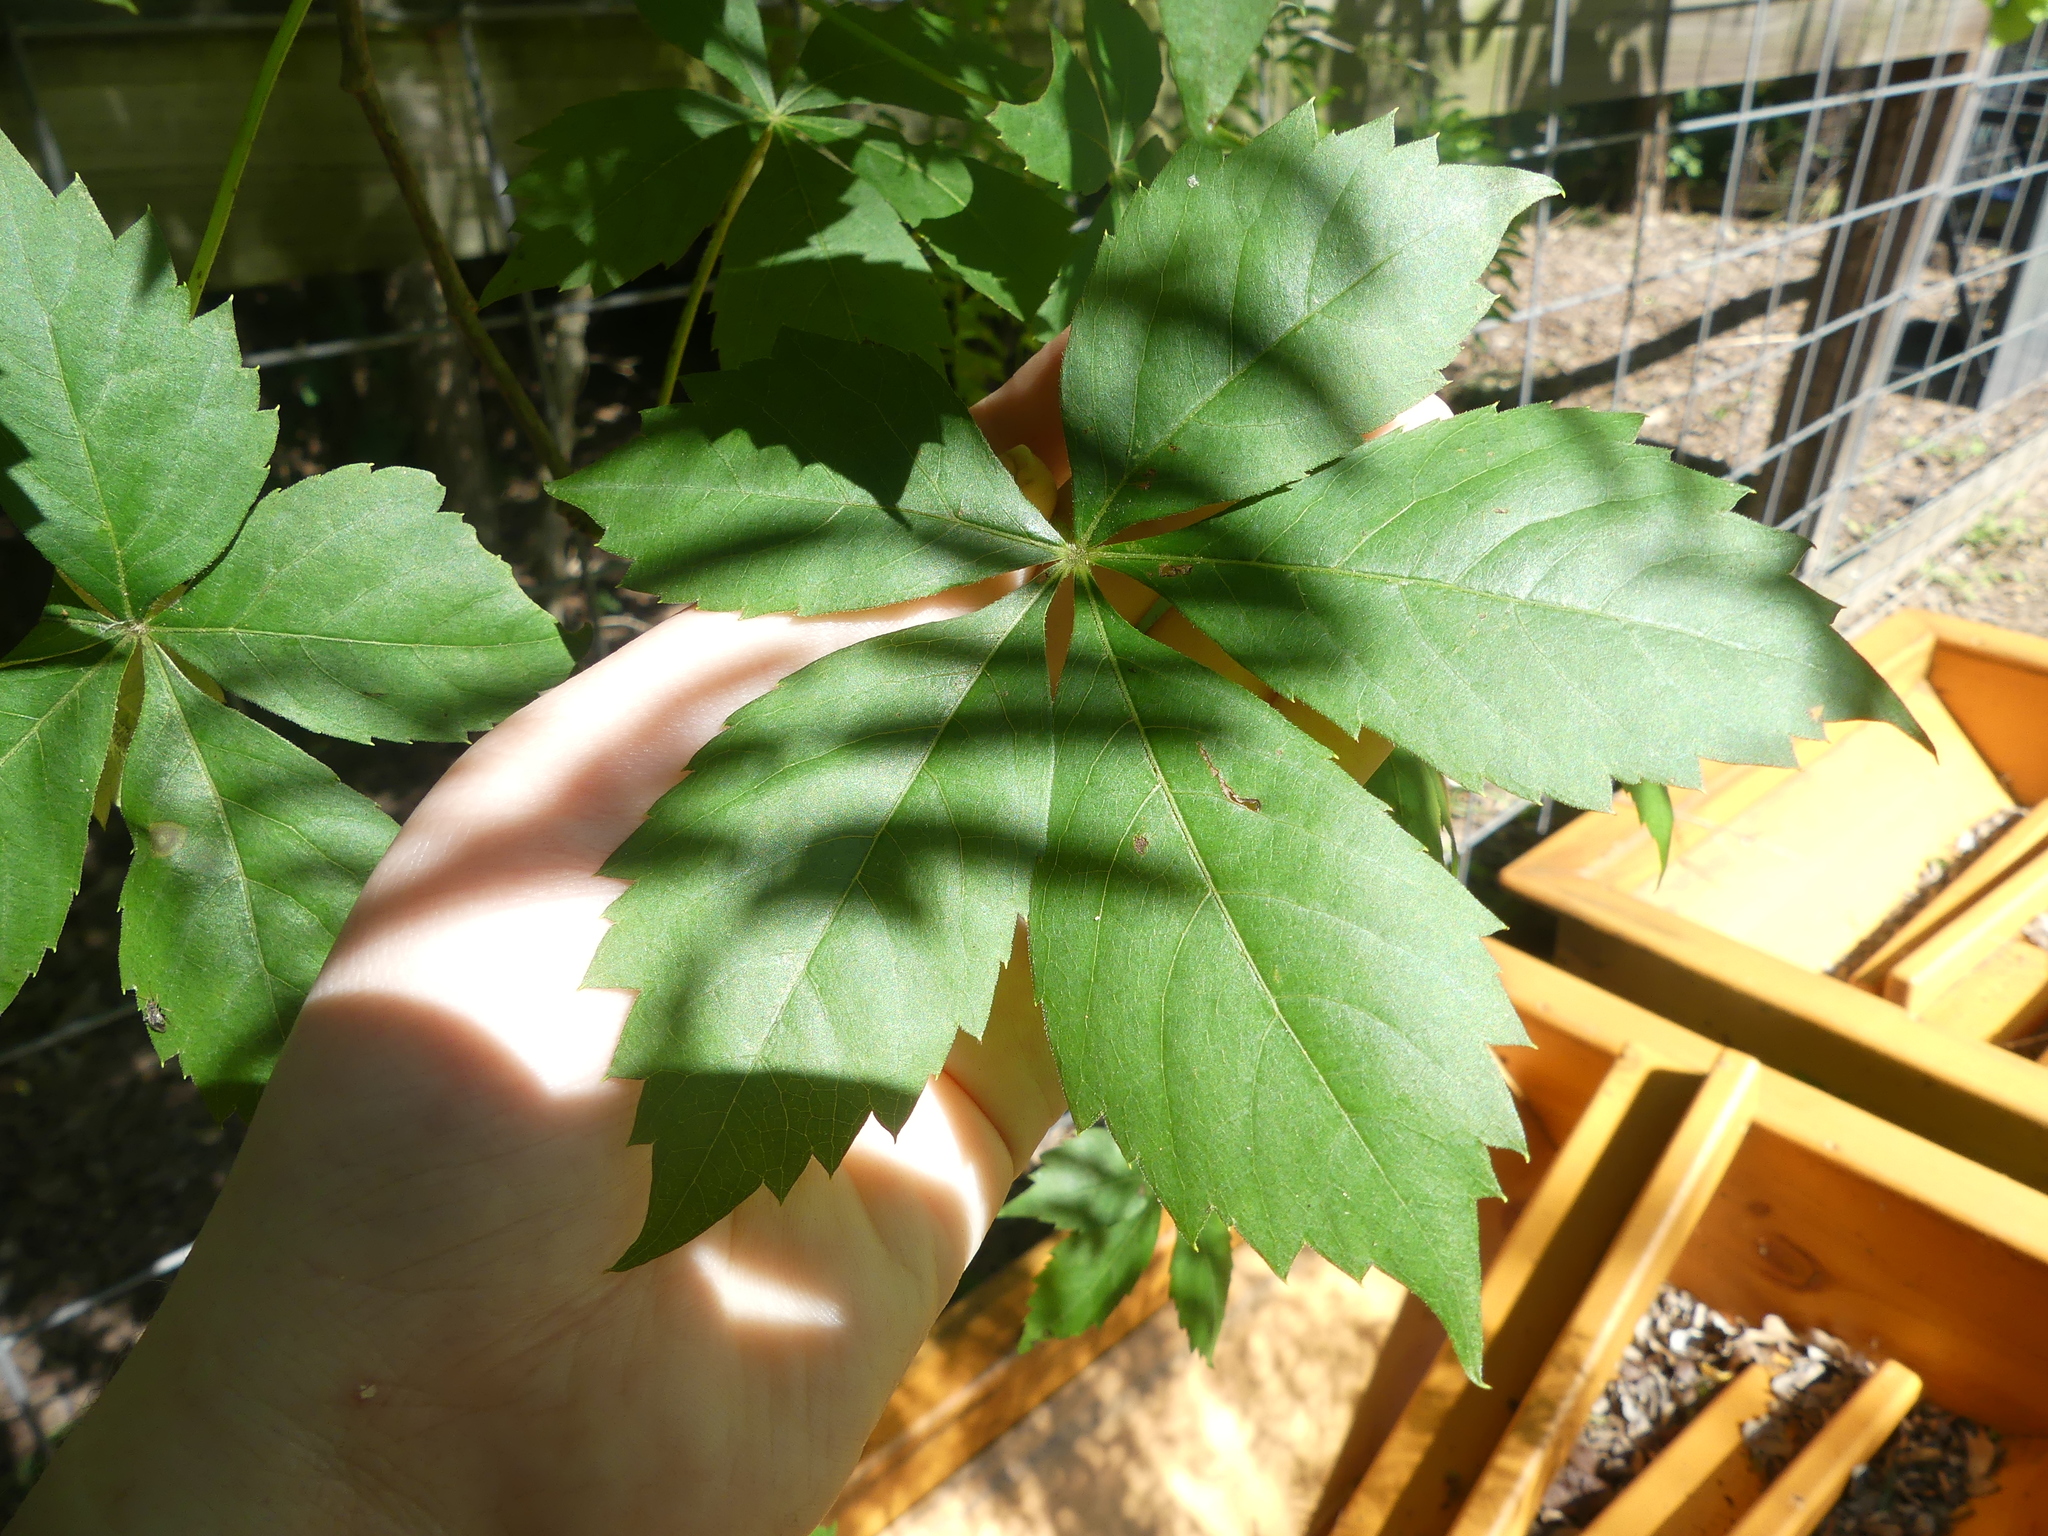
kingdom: Plantae
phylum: Tracheophyta
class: Magnoliopsida
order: Vitales
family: Vitaceae
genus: Parthenocissus
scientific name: Parthenocissus quinquefolia
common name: Virginia-creeper
